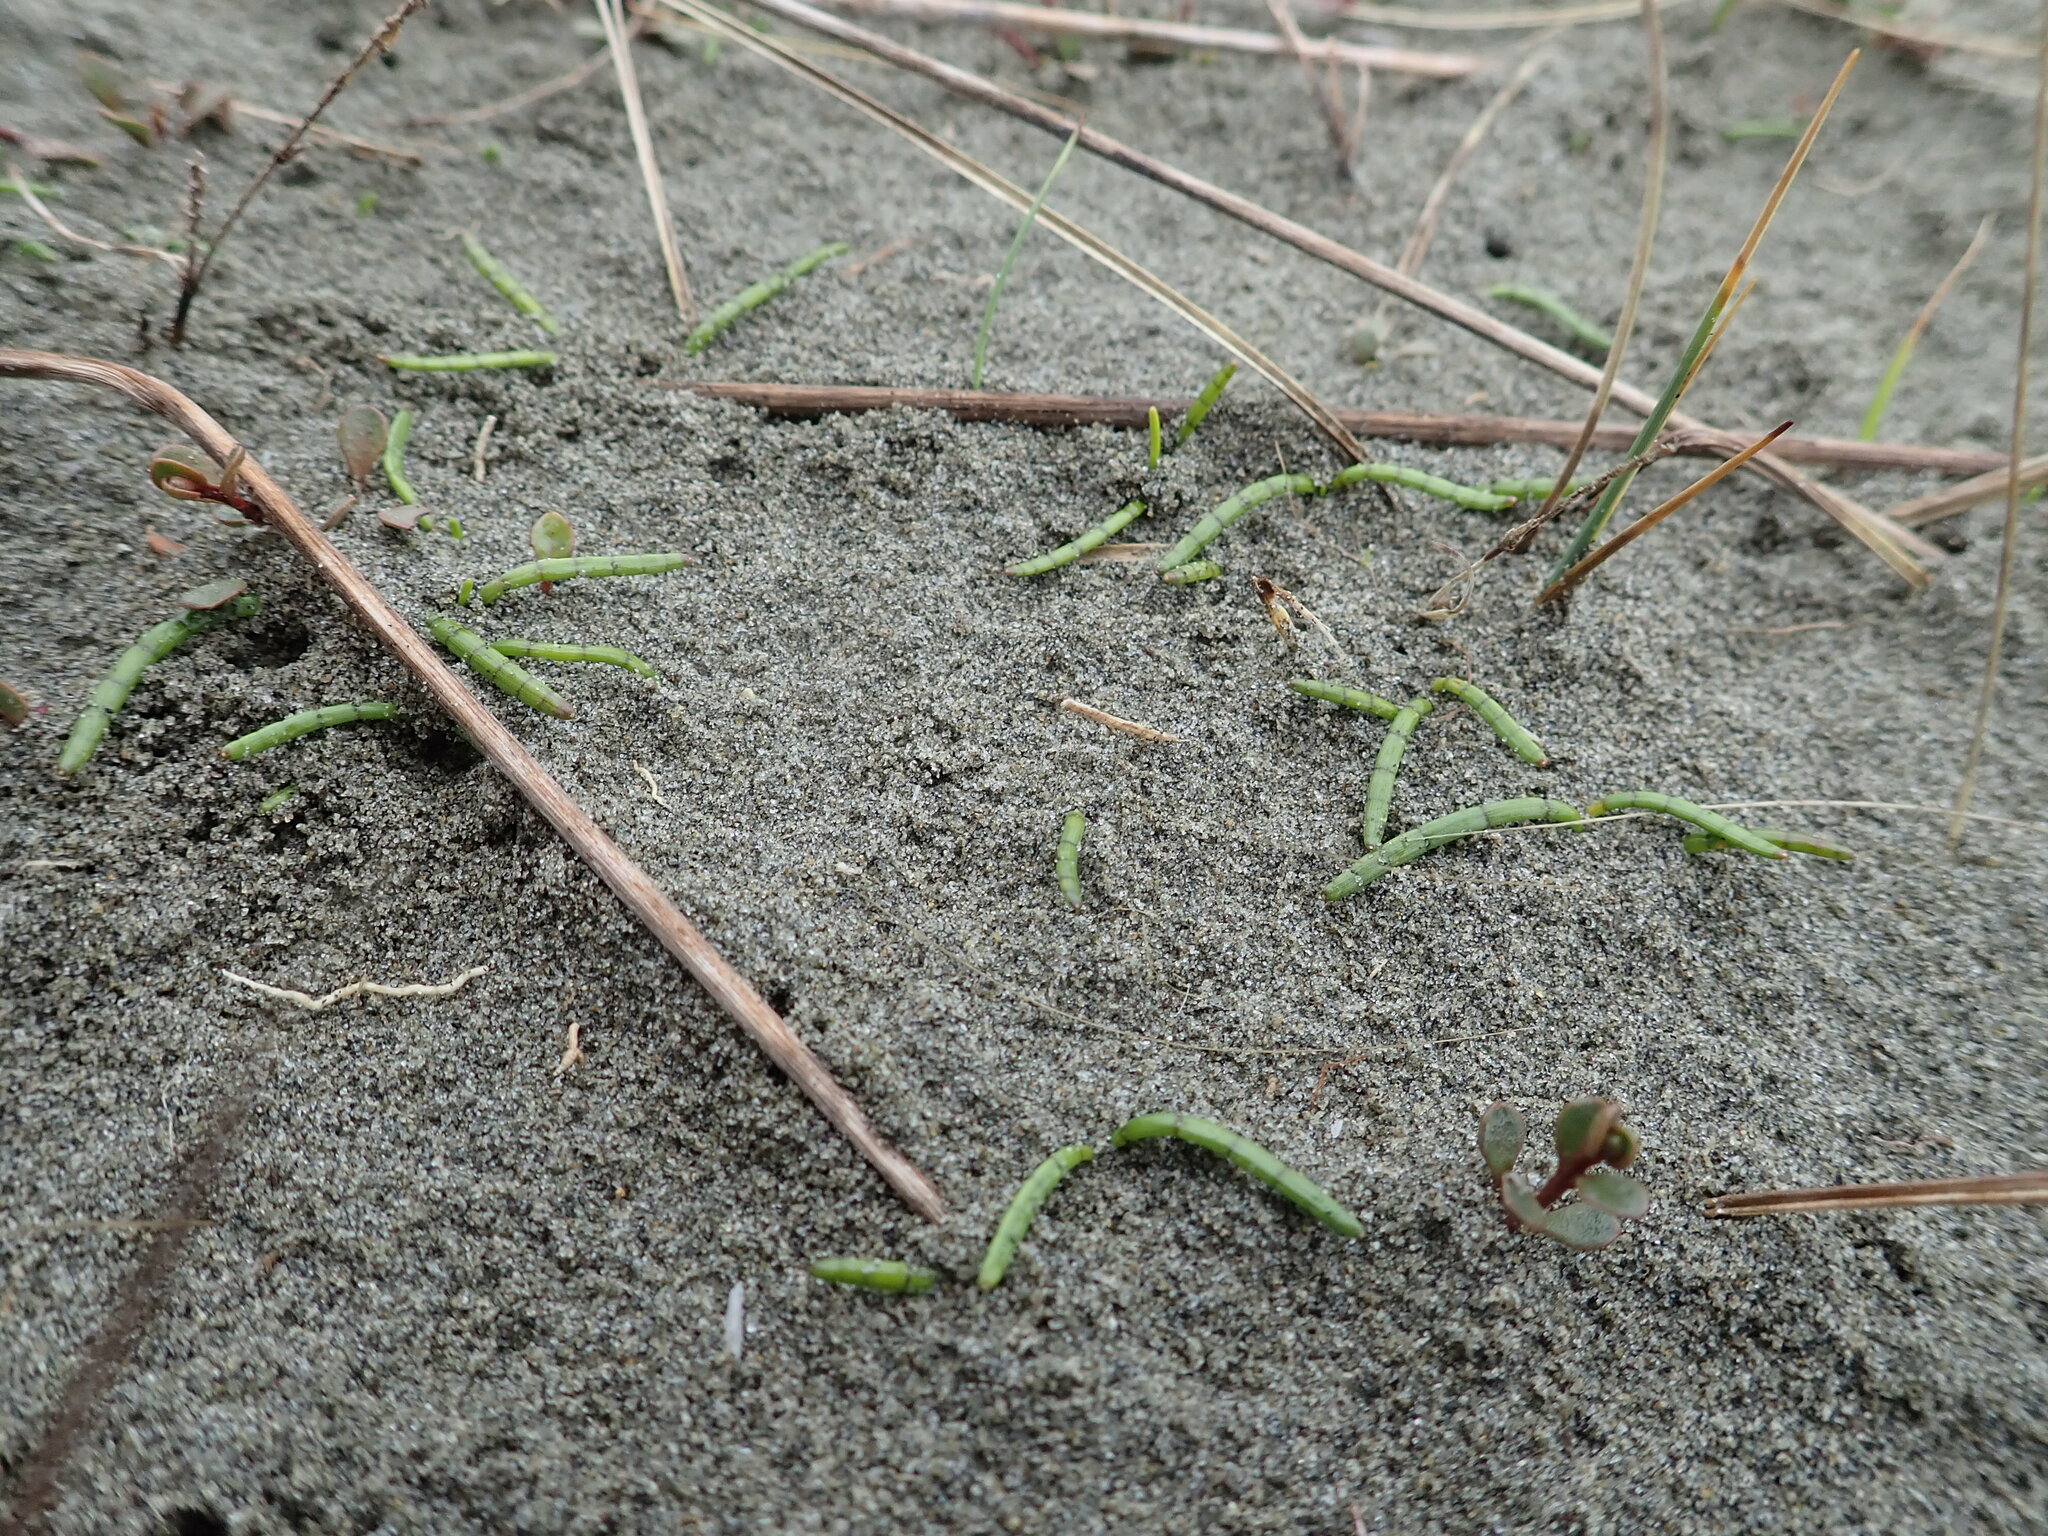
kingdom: Plantae
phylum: Tracheophyta
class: Magnoliopsida
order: Apiales
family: Apiaceae
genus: Lilaeopsis
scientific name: Lilaeopsis novae-zelandiae
